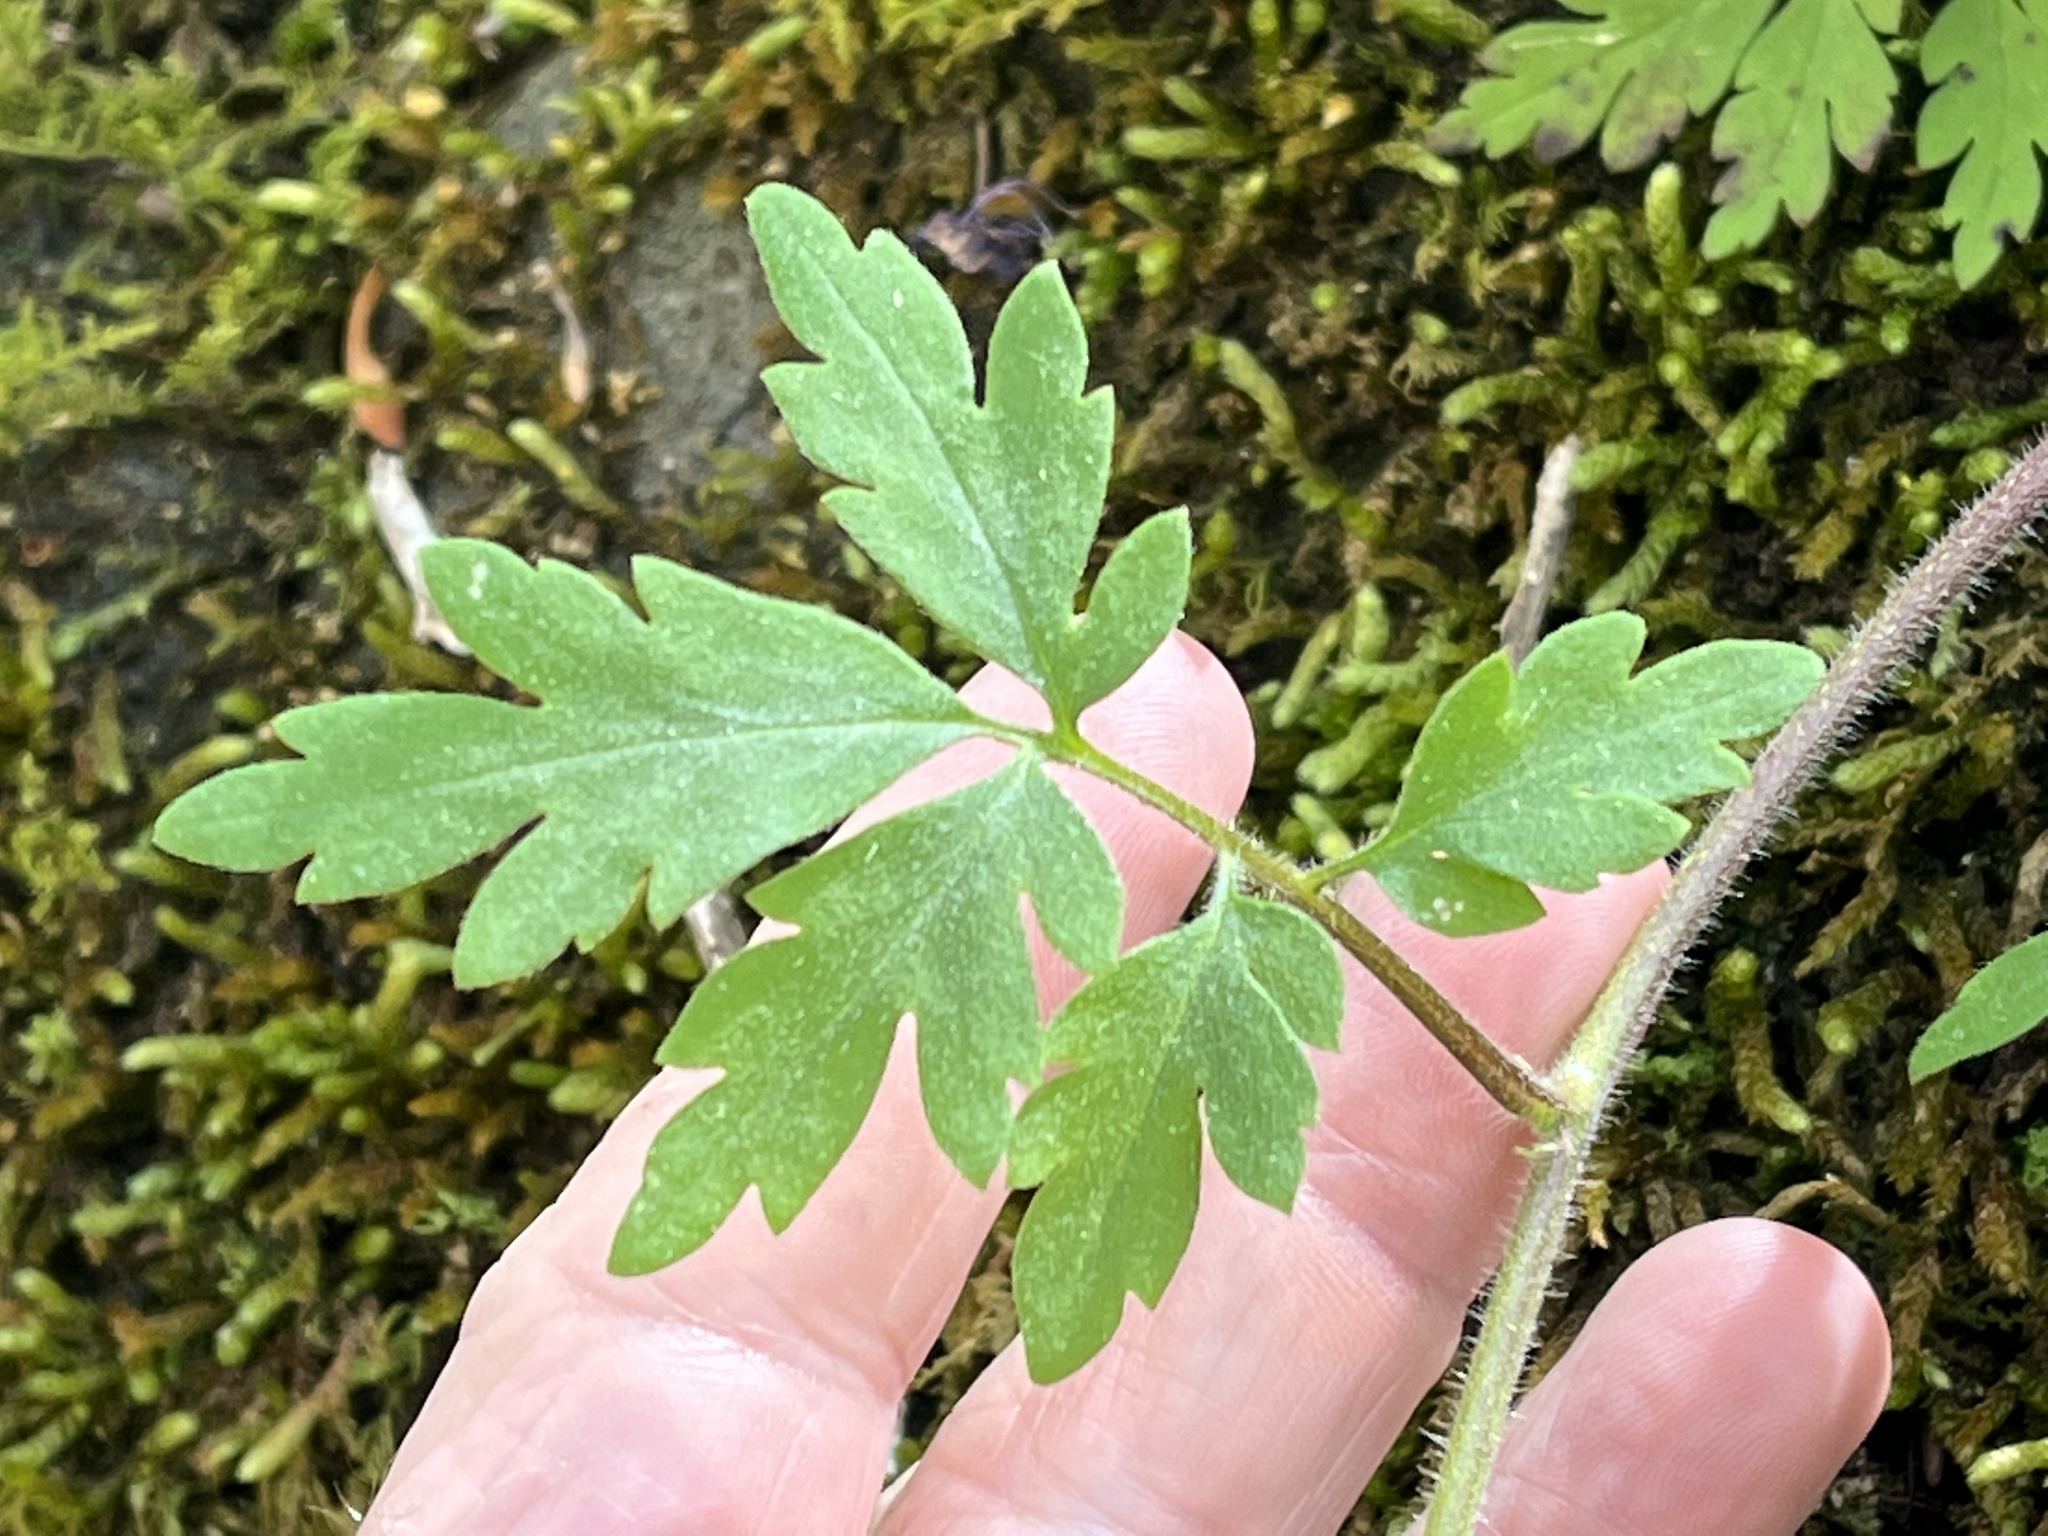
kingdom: Plantae
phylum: Tracheophyta
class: Magnoliopsida
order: Boraginales
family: Hydrophyllaceae
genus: Phacelia
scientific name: Phacelia bipinnatifida
